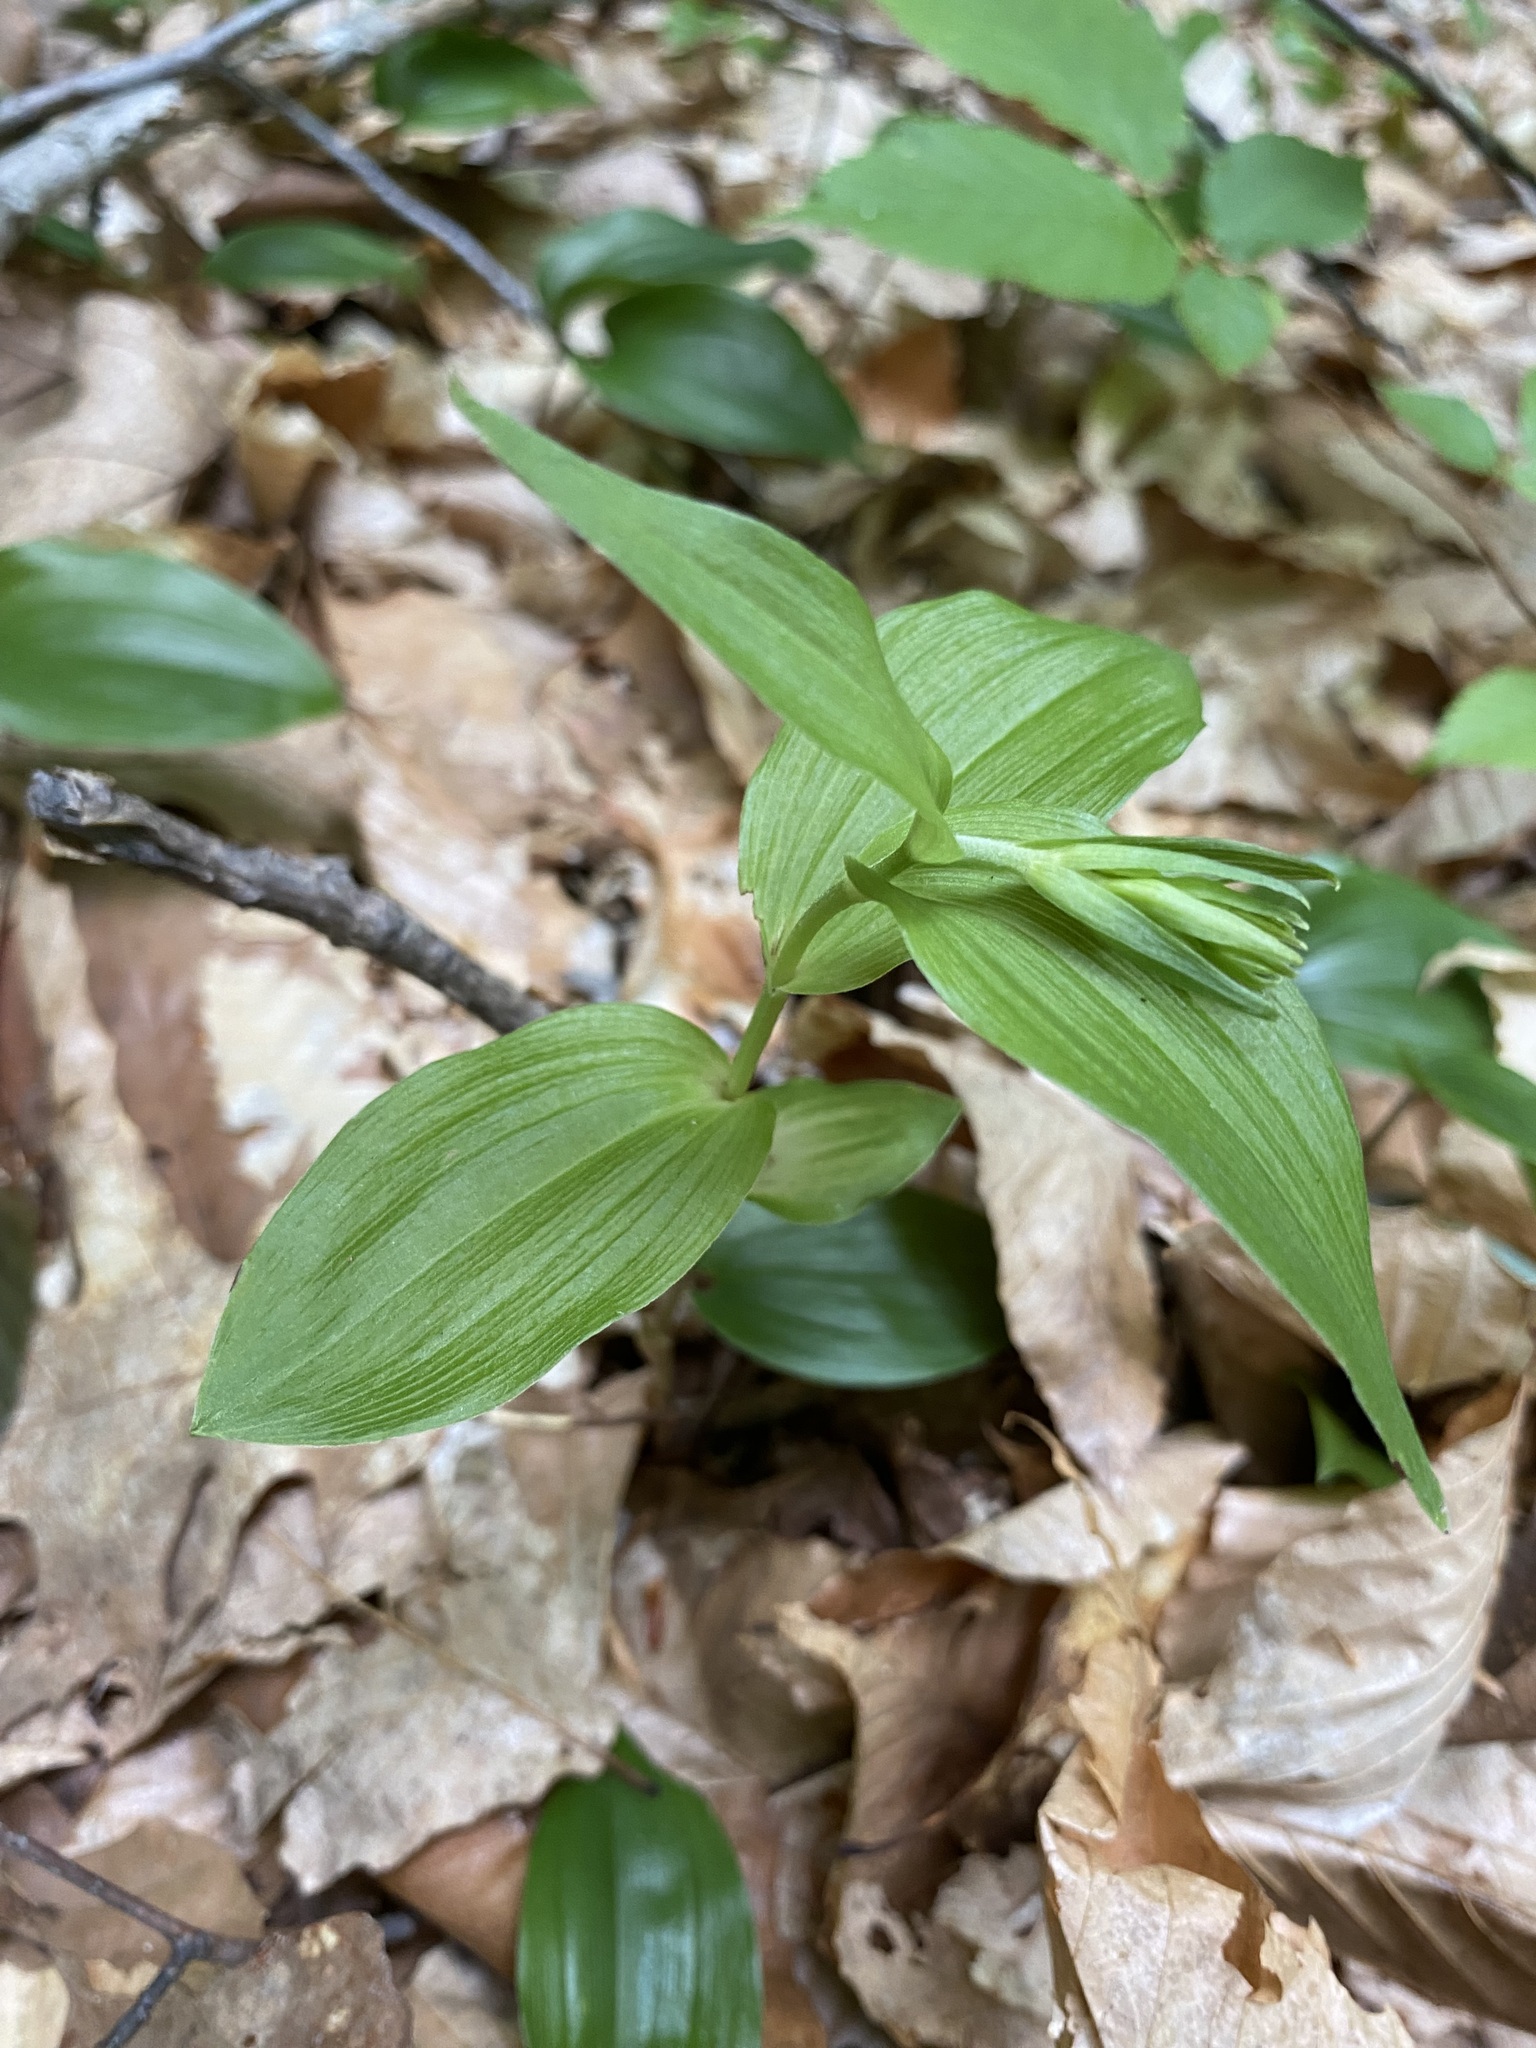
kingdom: Plantae
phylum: Tracheophyta
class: Liliopsida
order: Asparagales
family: Orchidaceae
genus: Epipactis
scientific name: Epipactis helleborine
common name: Broad-leaved helleborine
